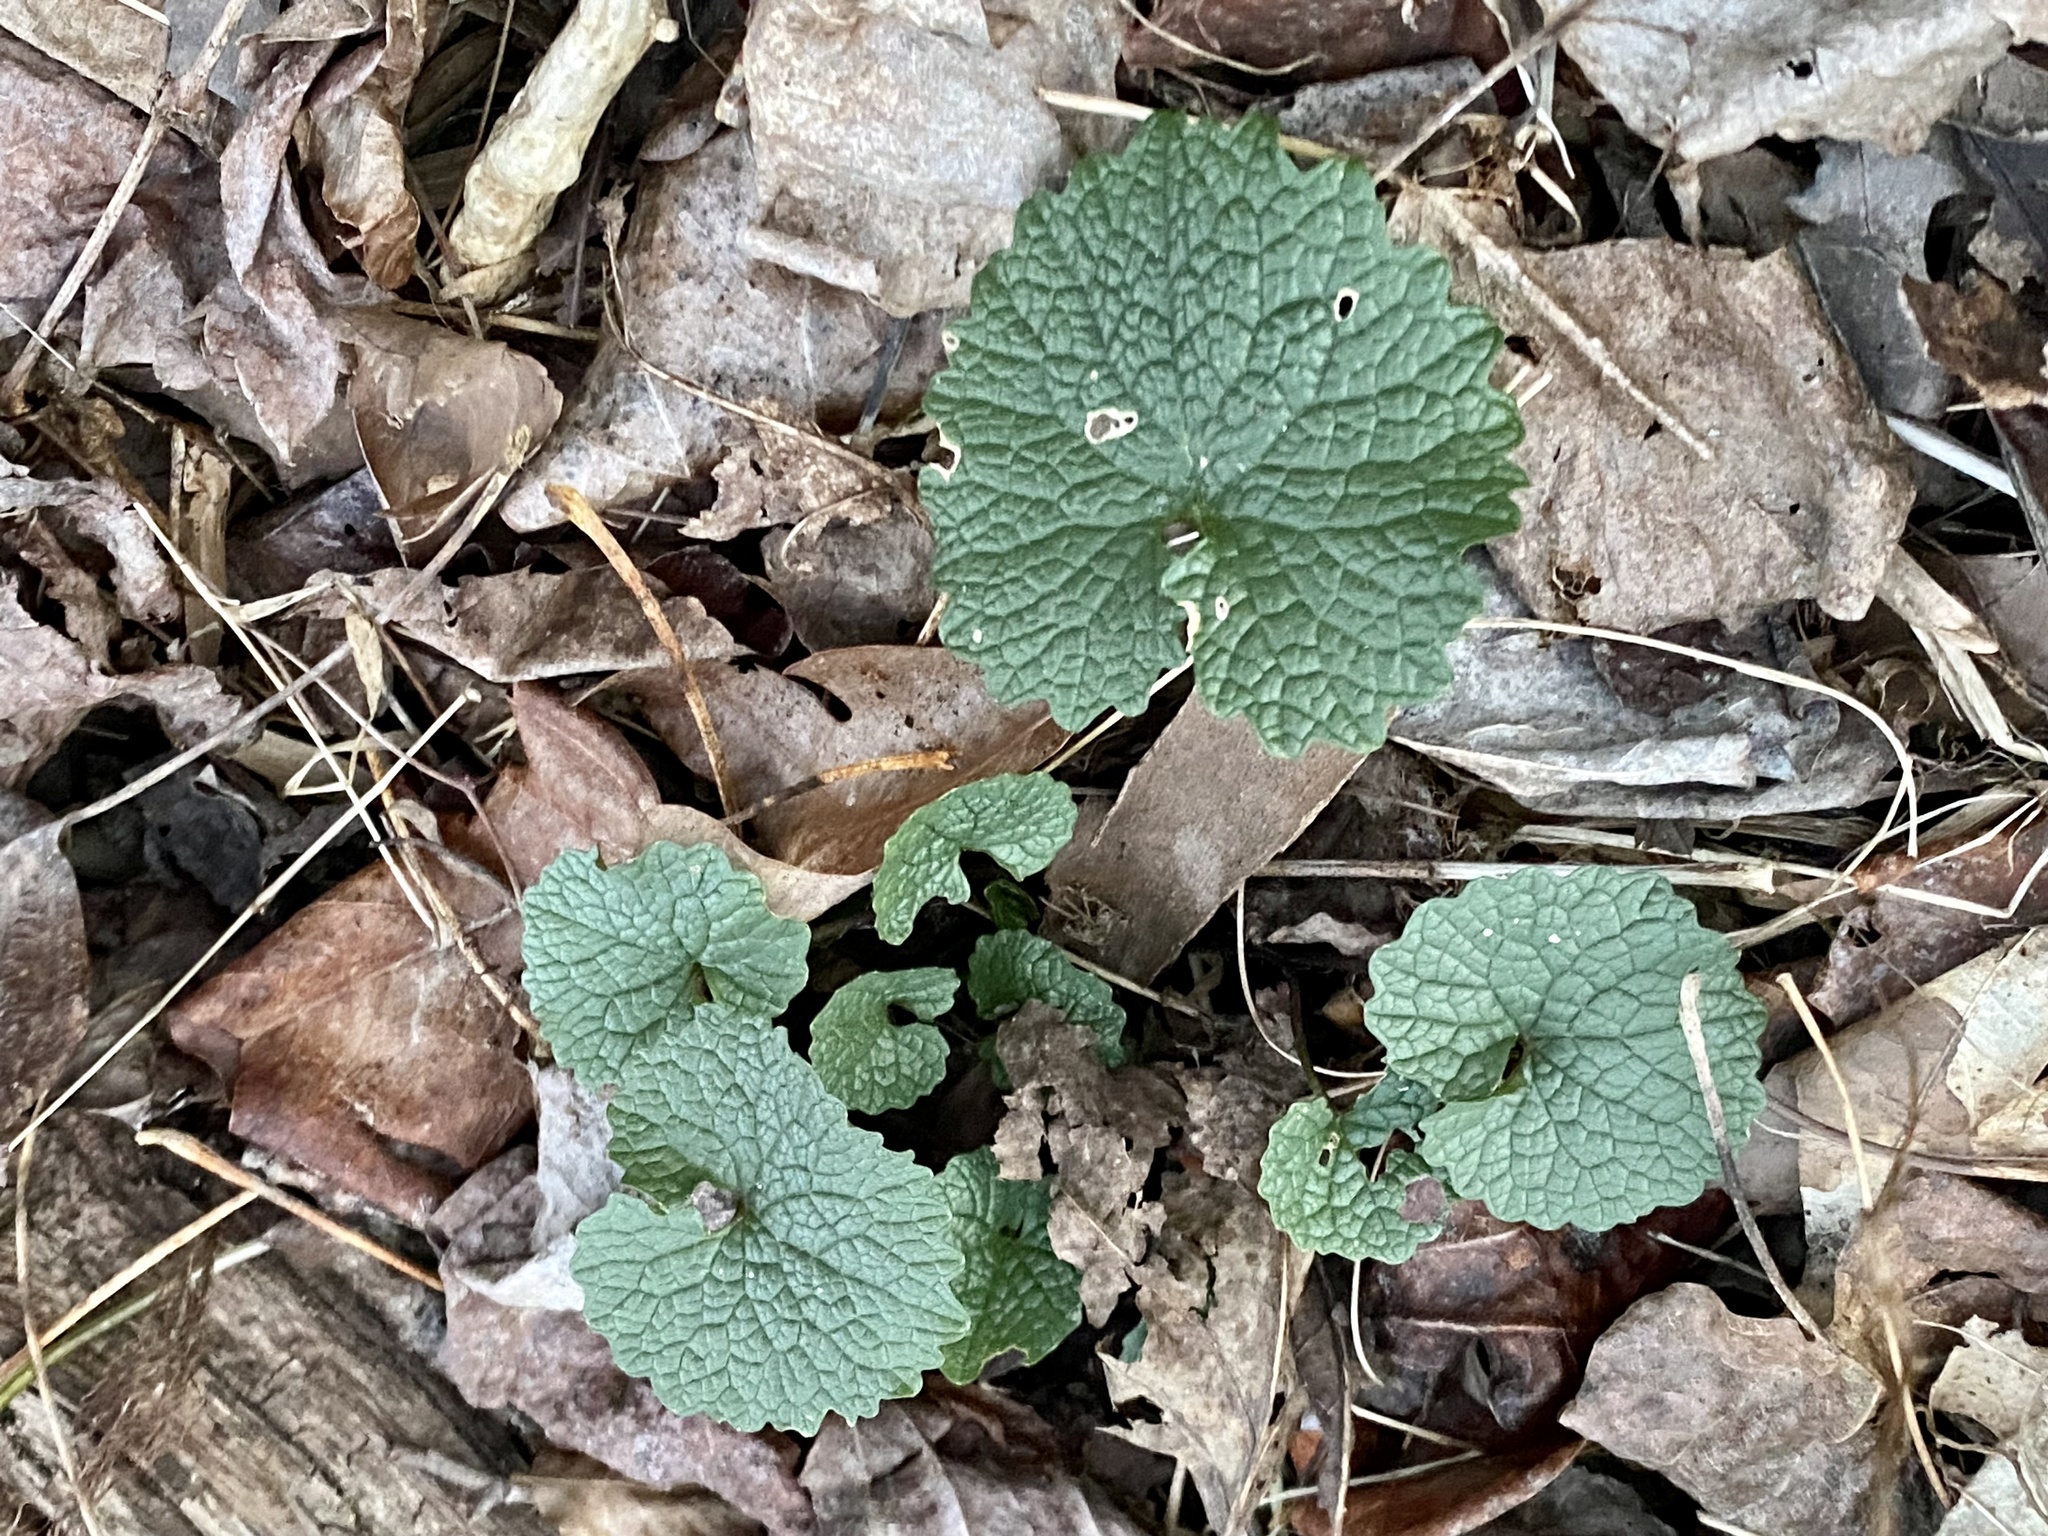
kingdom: Plantae
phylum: Tracheophyta
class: Magnoliopsida
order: Brassicales
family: Brassicaceae
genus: Alliaria
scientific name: Alliaria petiolata
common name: Garlic mustard
